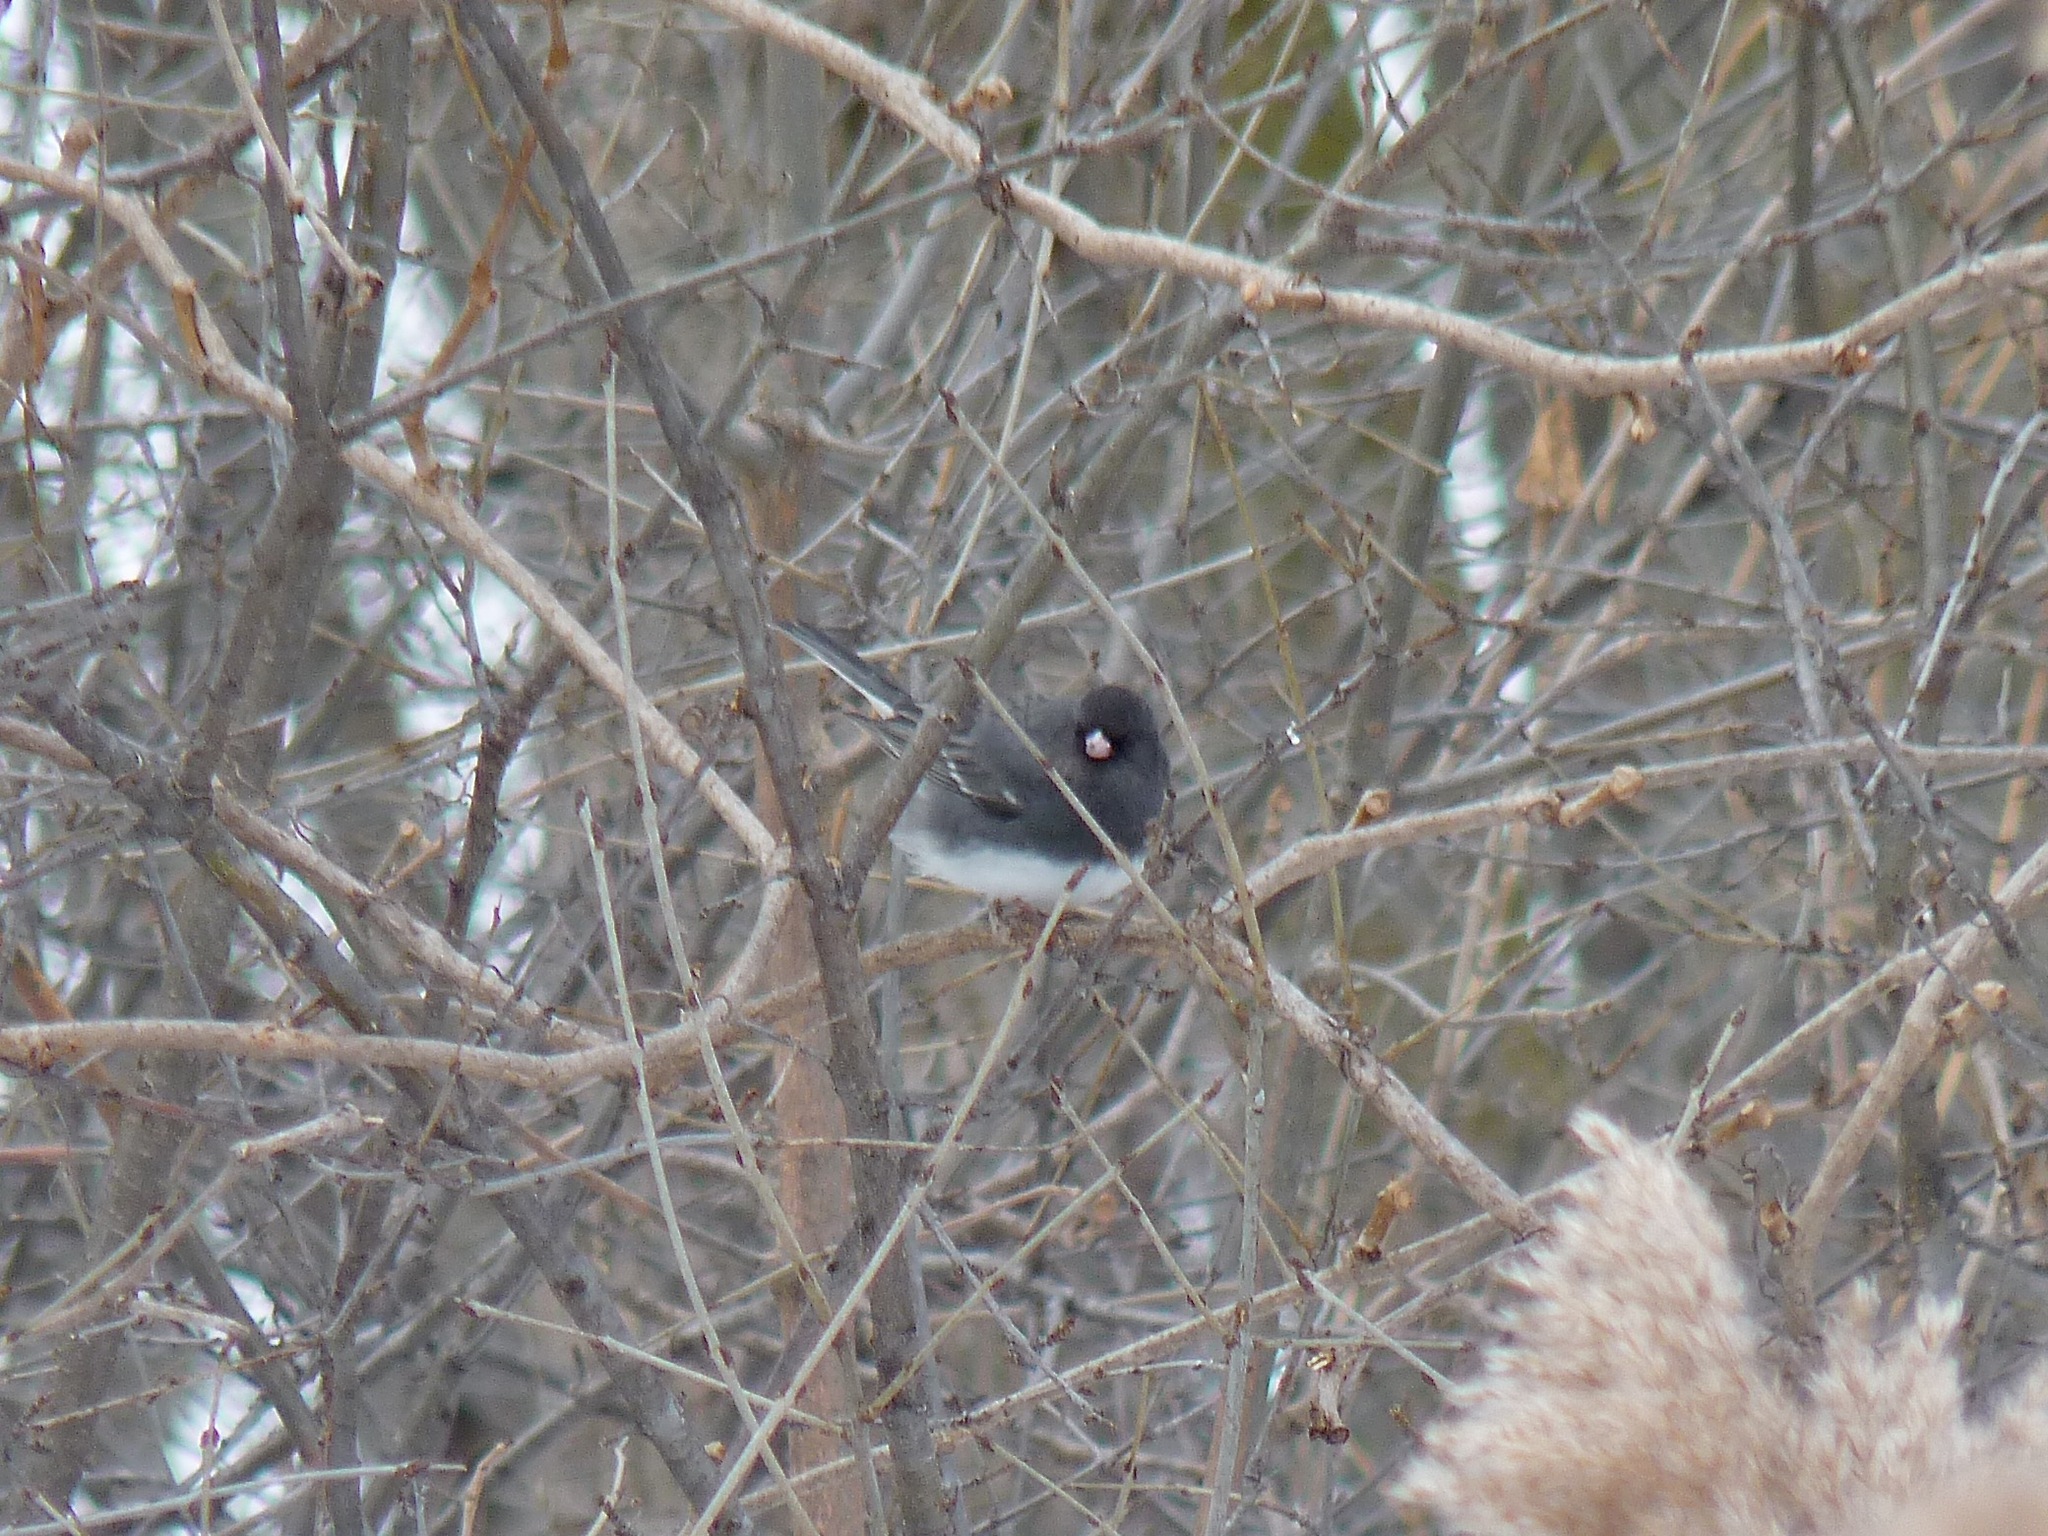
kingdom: Animalia
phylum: Chordata
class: Aves
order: Passeriformes
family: Passerellidae
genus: Junco
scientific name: Junco hyemalis
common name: Dark-eyed junco
